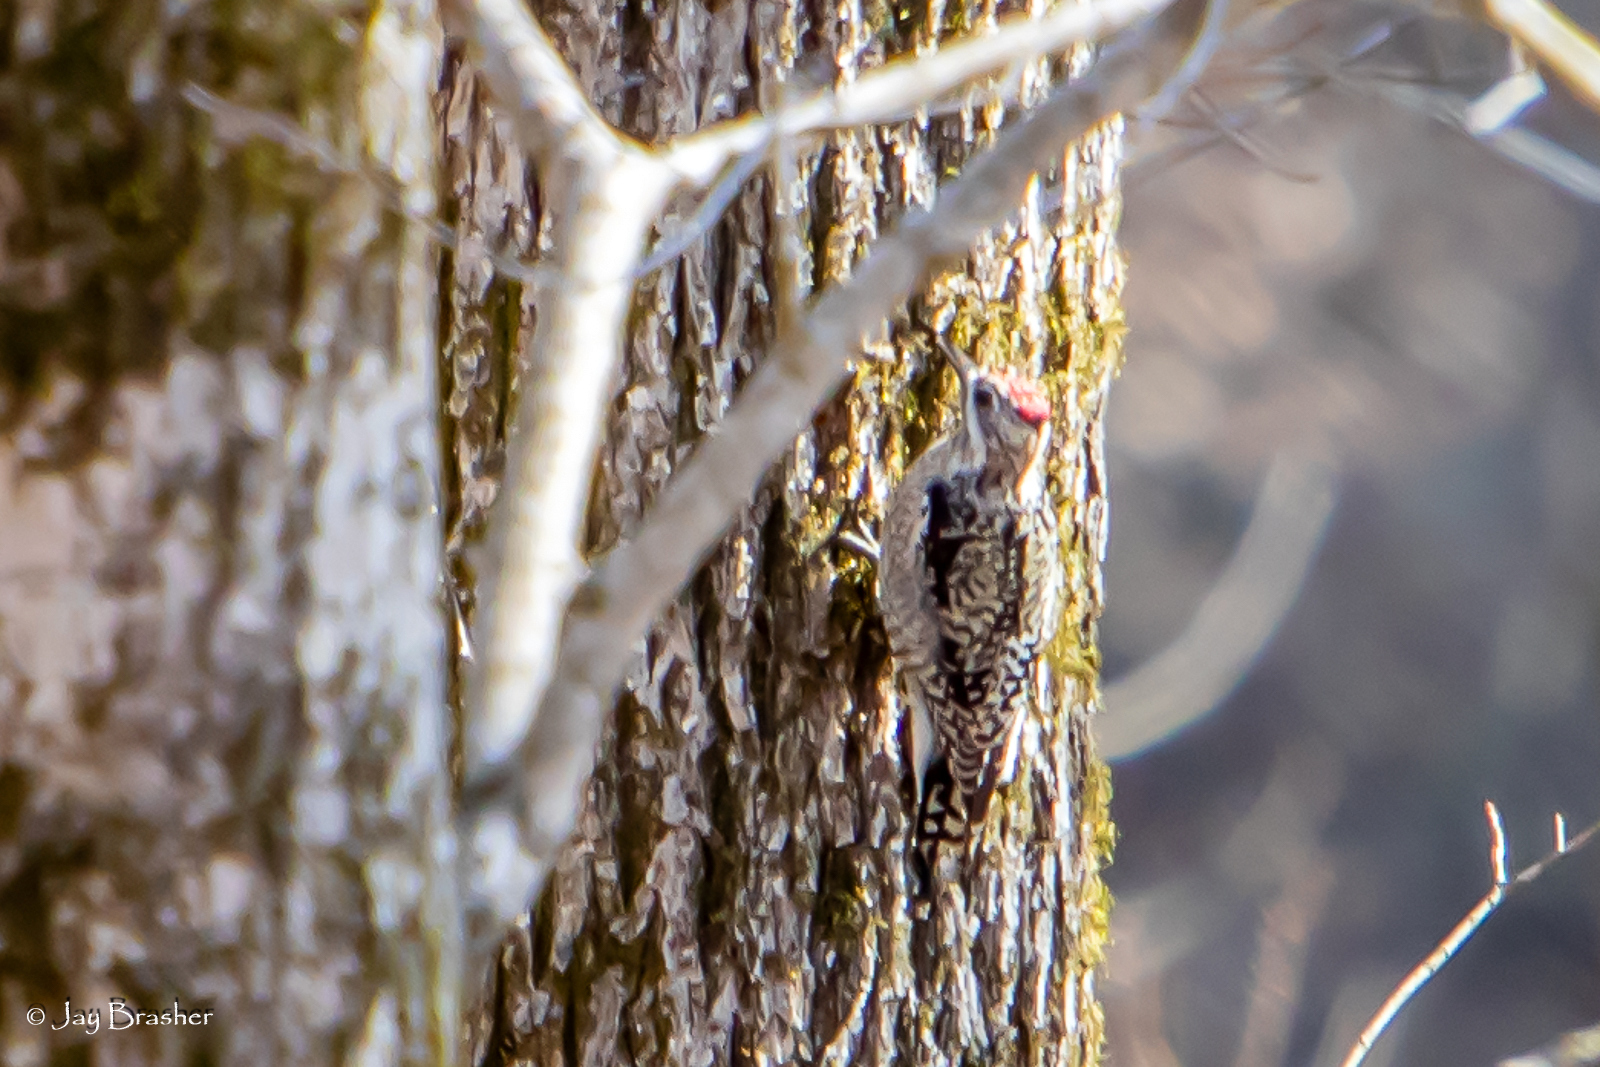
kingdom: Animalia
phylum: Chordata
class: Aves
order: Piciformes
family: Picidae
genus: Sphyrapicus
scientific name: Sphyrapicus varius
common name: Yellow-bellied sapsucker
